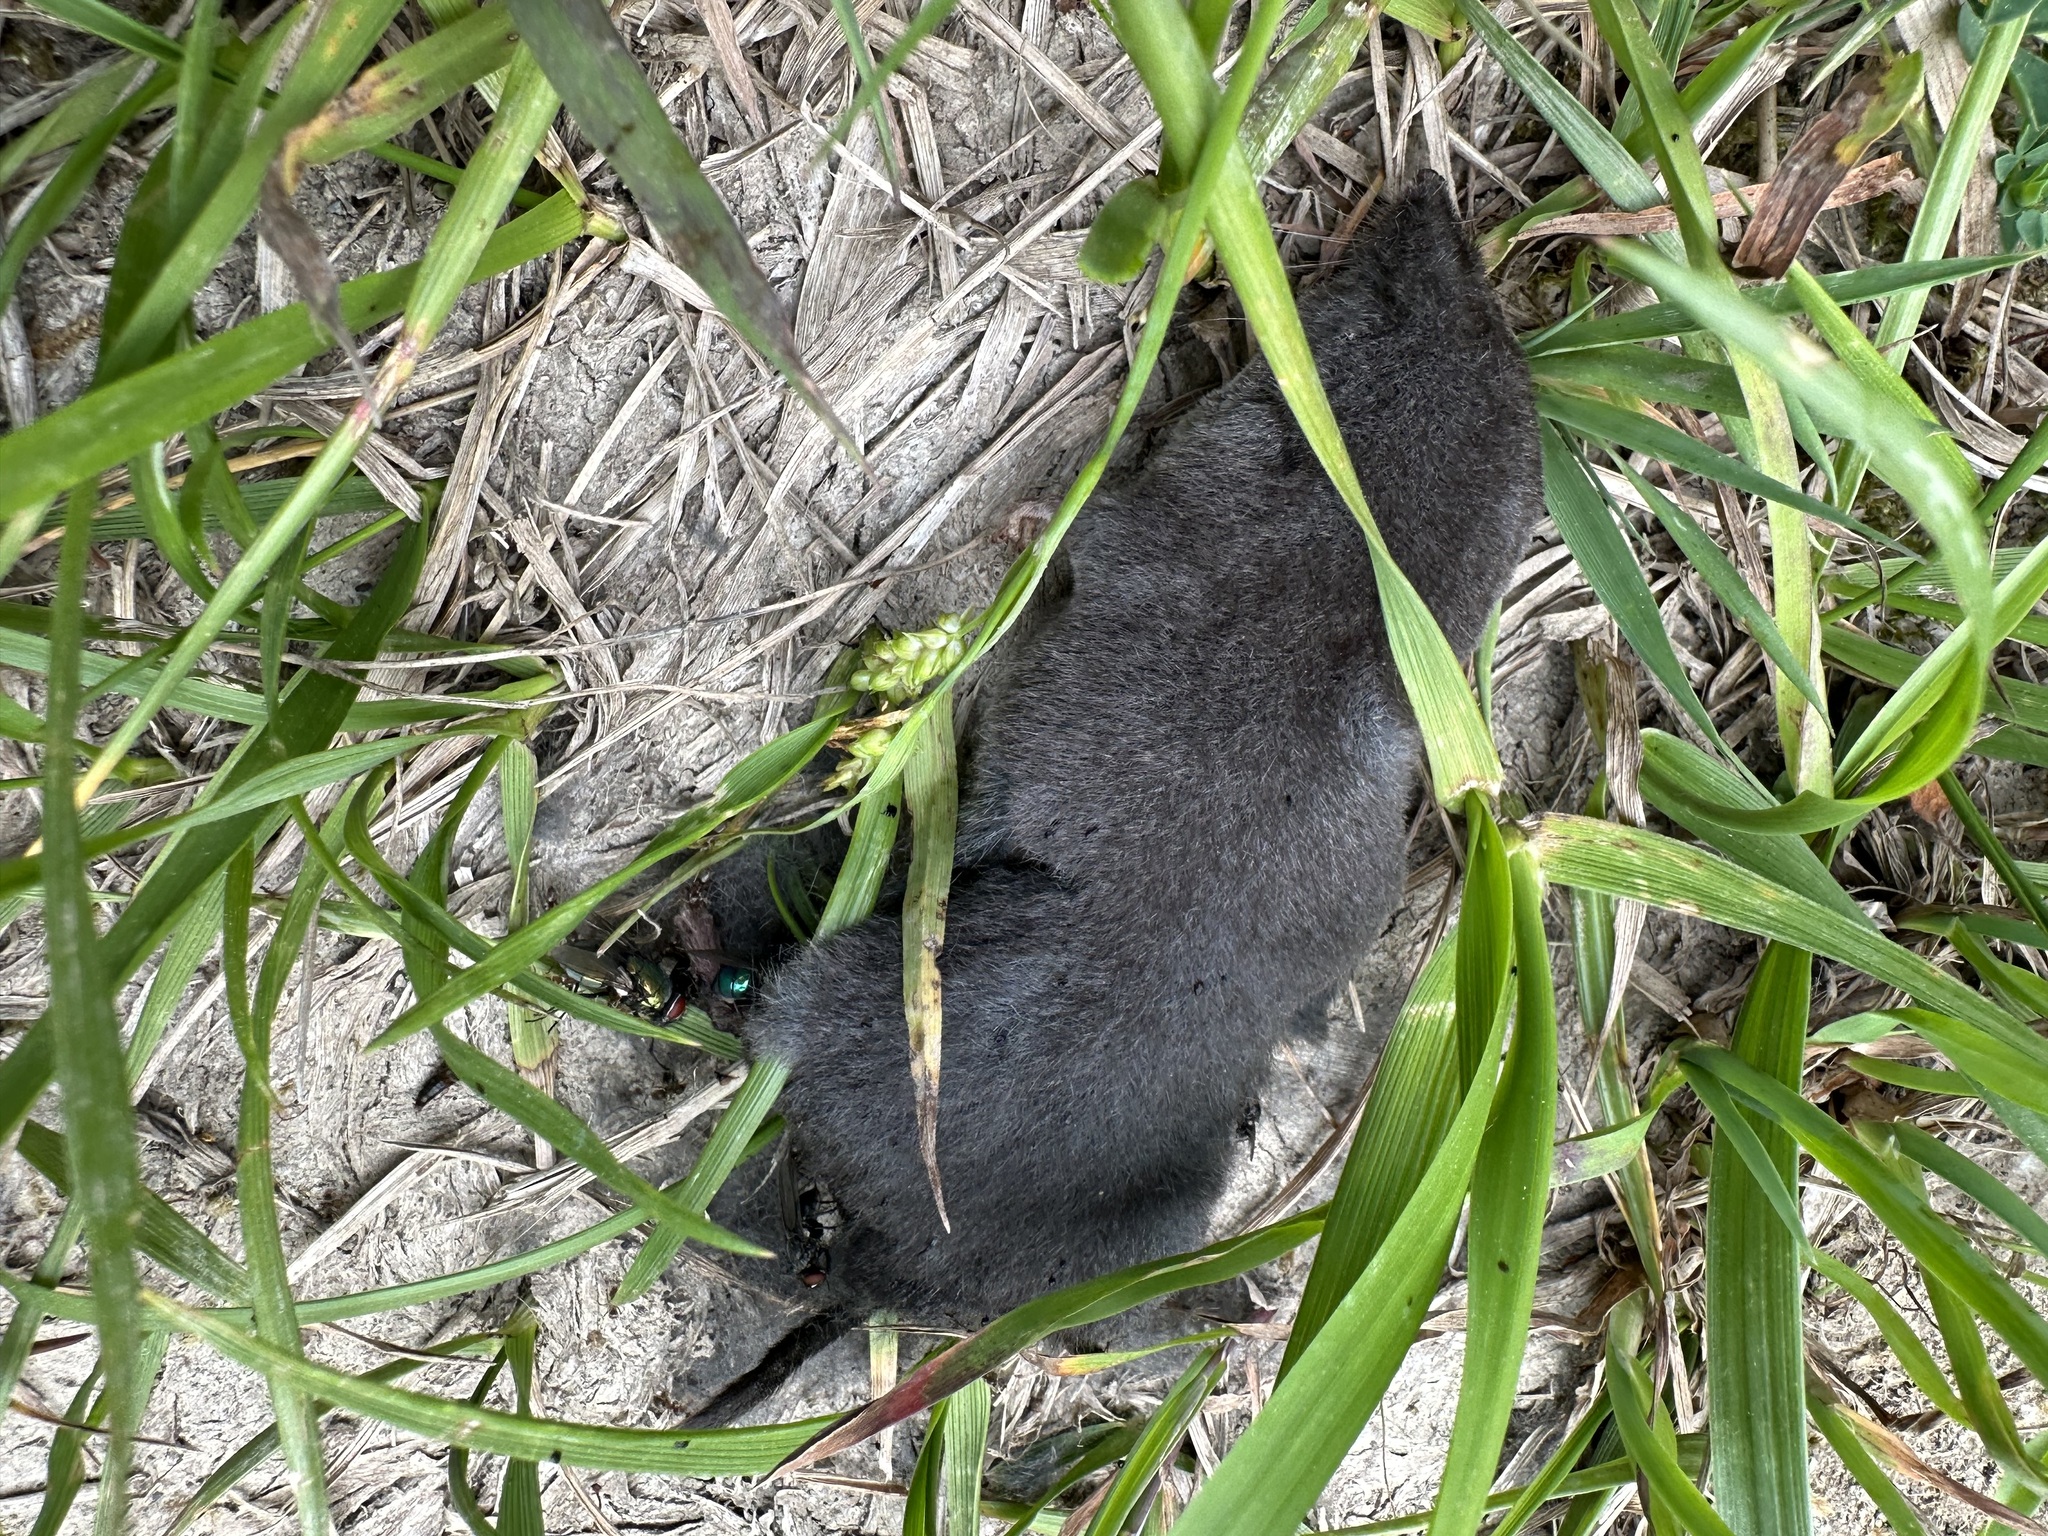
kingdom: Animalia
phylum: Chordata
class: Mammalia
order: Soricomorpha
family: Soricidae
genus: Blarina
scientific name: Blarina brevicauda
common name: Northern short-tailed shrew
